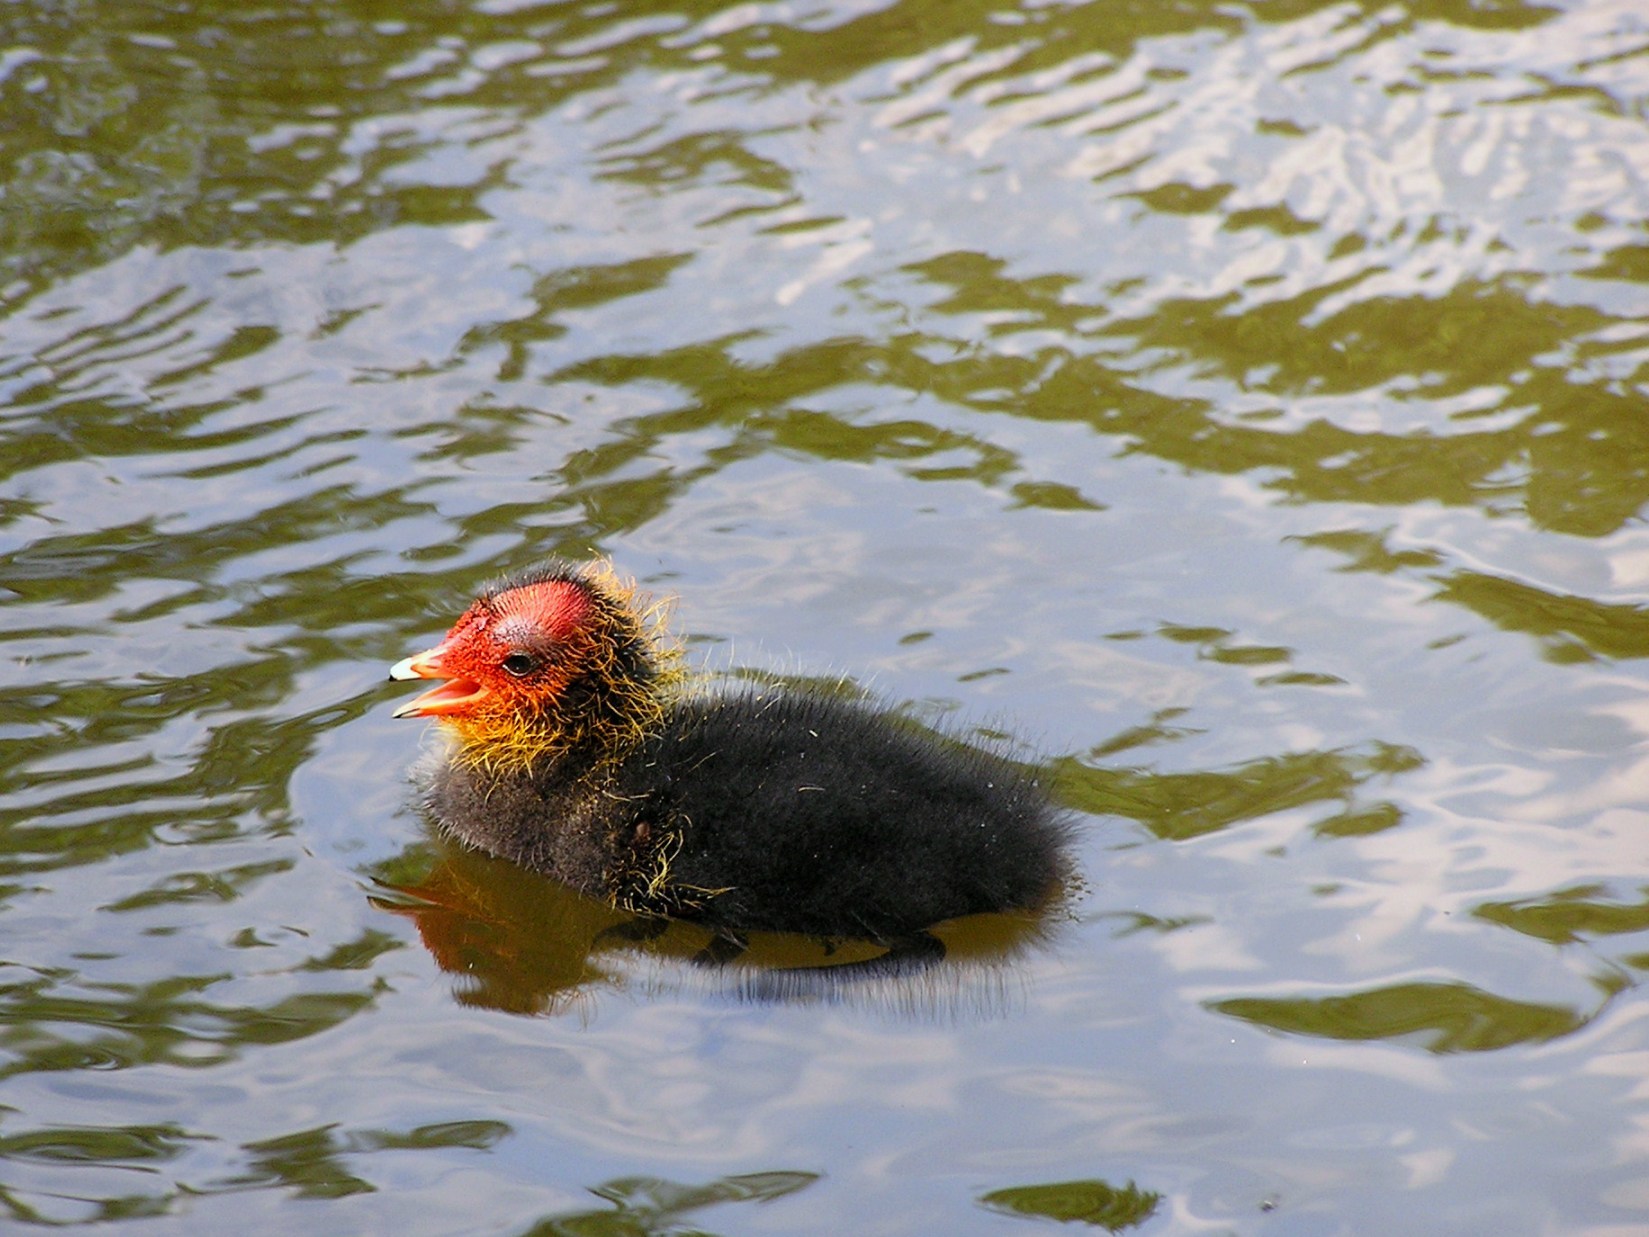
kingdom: Animalia
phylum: Chordata
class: Aves
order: Gruiformes
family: Rallidae
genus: Fulica
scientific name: Fulica atra
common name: Eurasian coot
